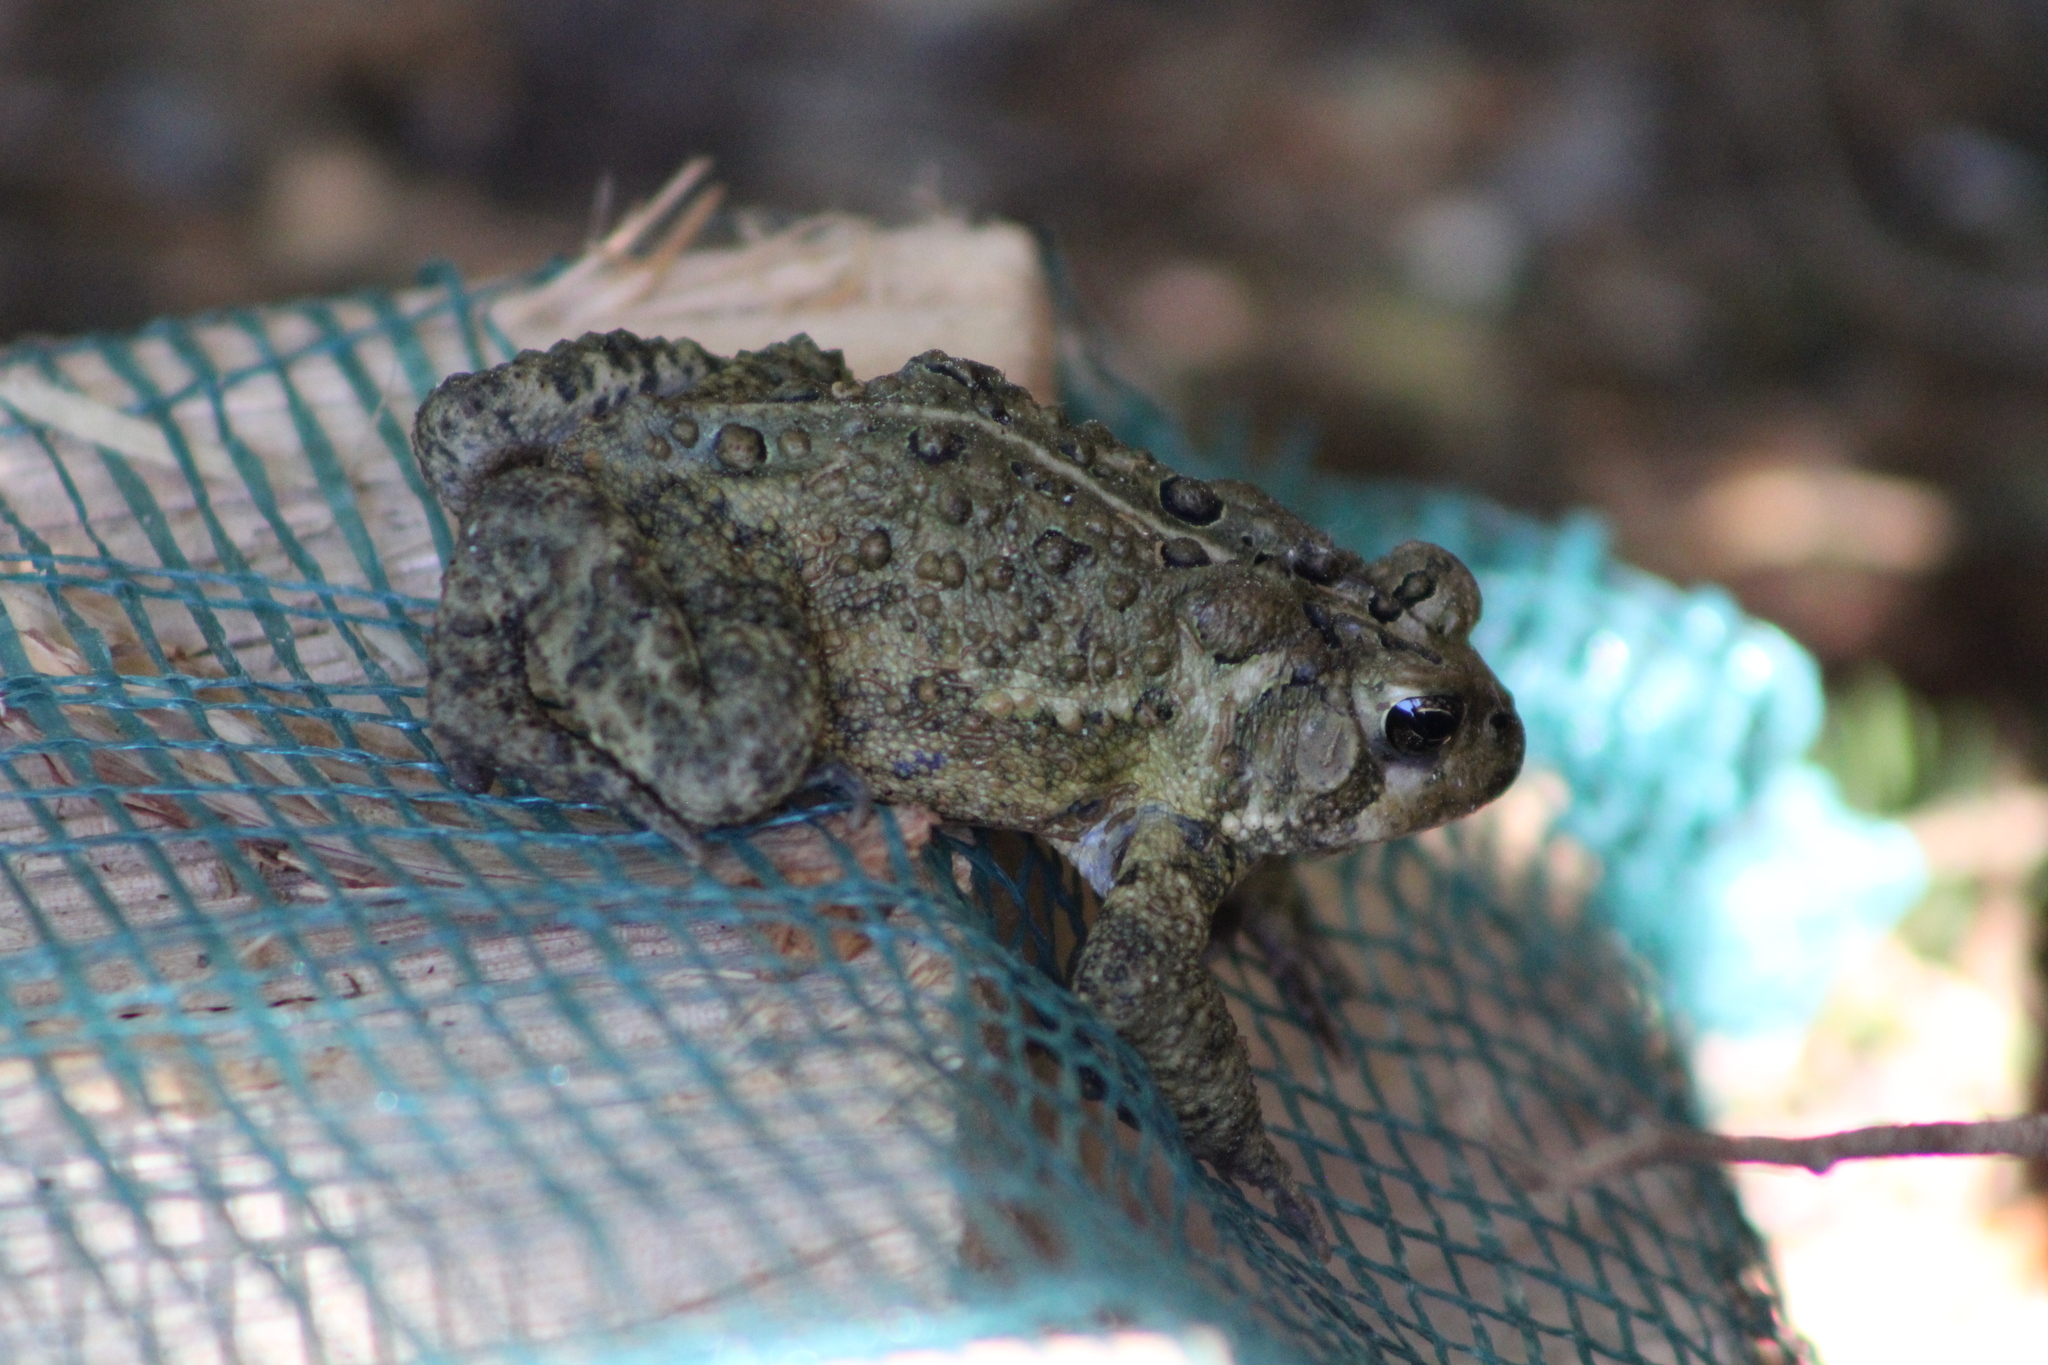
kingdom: Animalia
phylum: Chordata
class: Amphibia
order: Anura
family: Bufonidae
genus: Anaxyrus
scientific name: Anaxyrus americanus
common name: American toad
